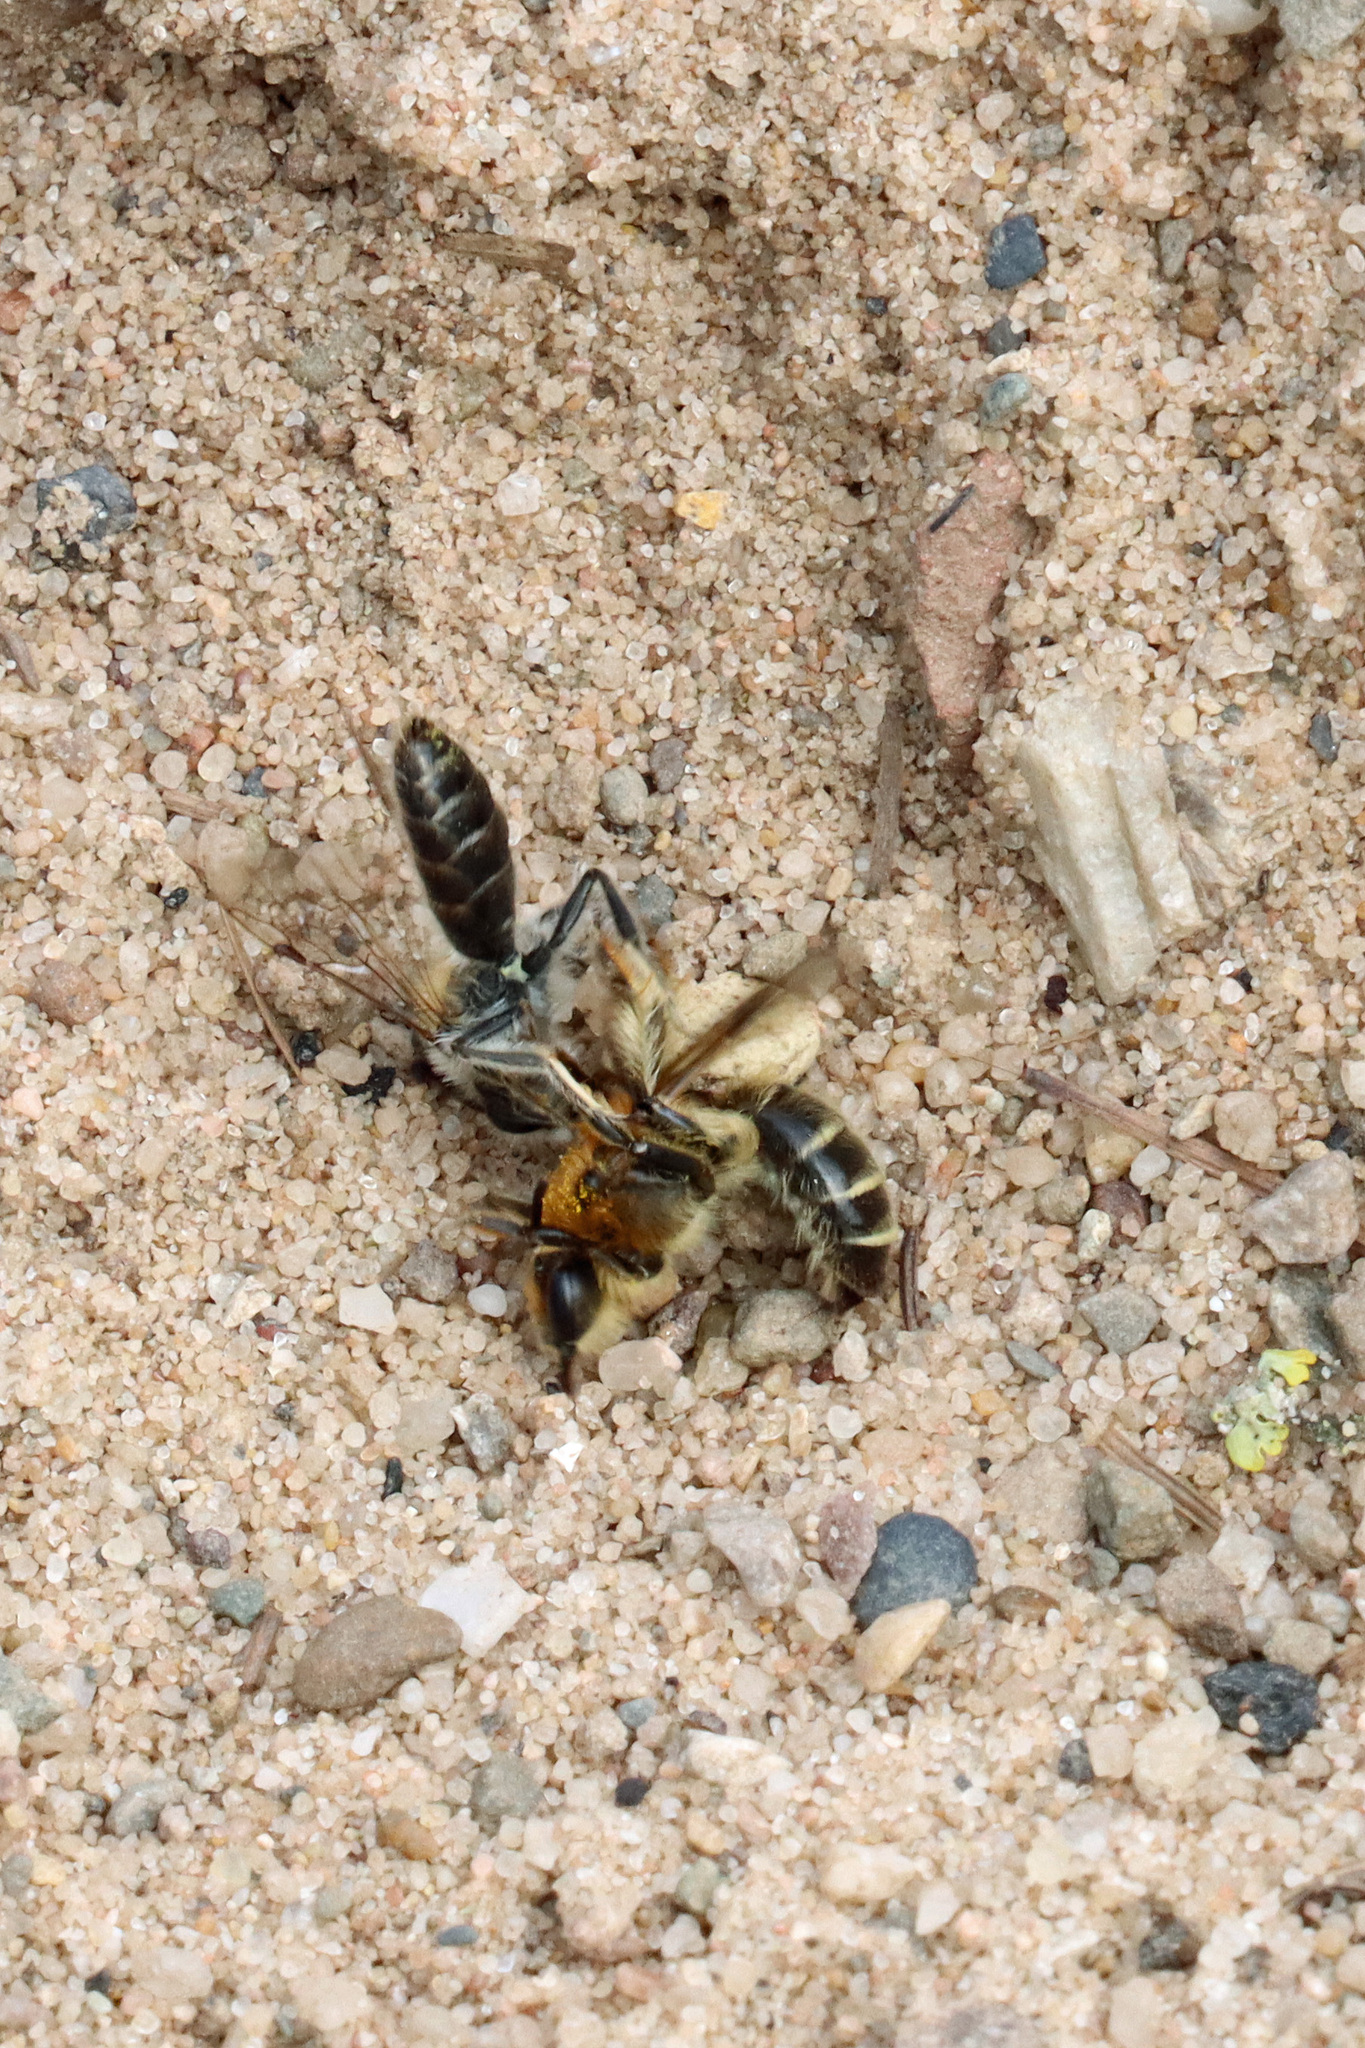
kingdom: Animalia
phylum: Arthropoda
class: Insecta
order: Hymenoptera
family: Andrenidae
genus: Andrena
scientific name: Andrena barbilabris
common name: Sandpit mining bee
